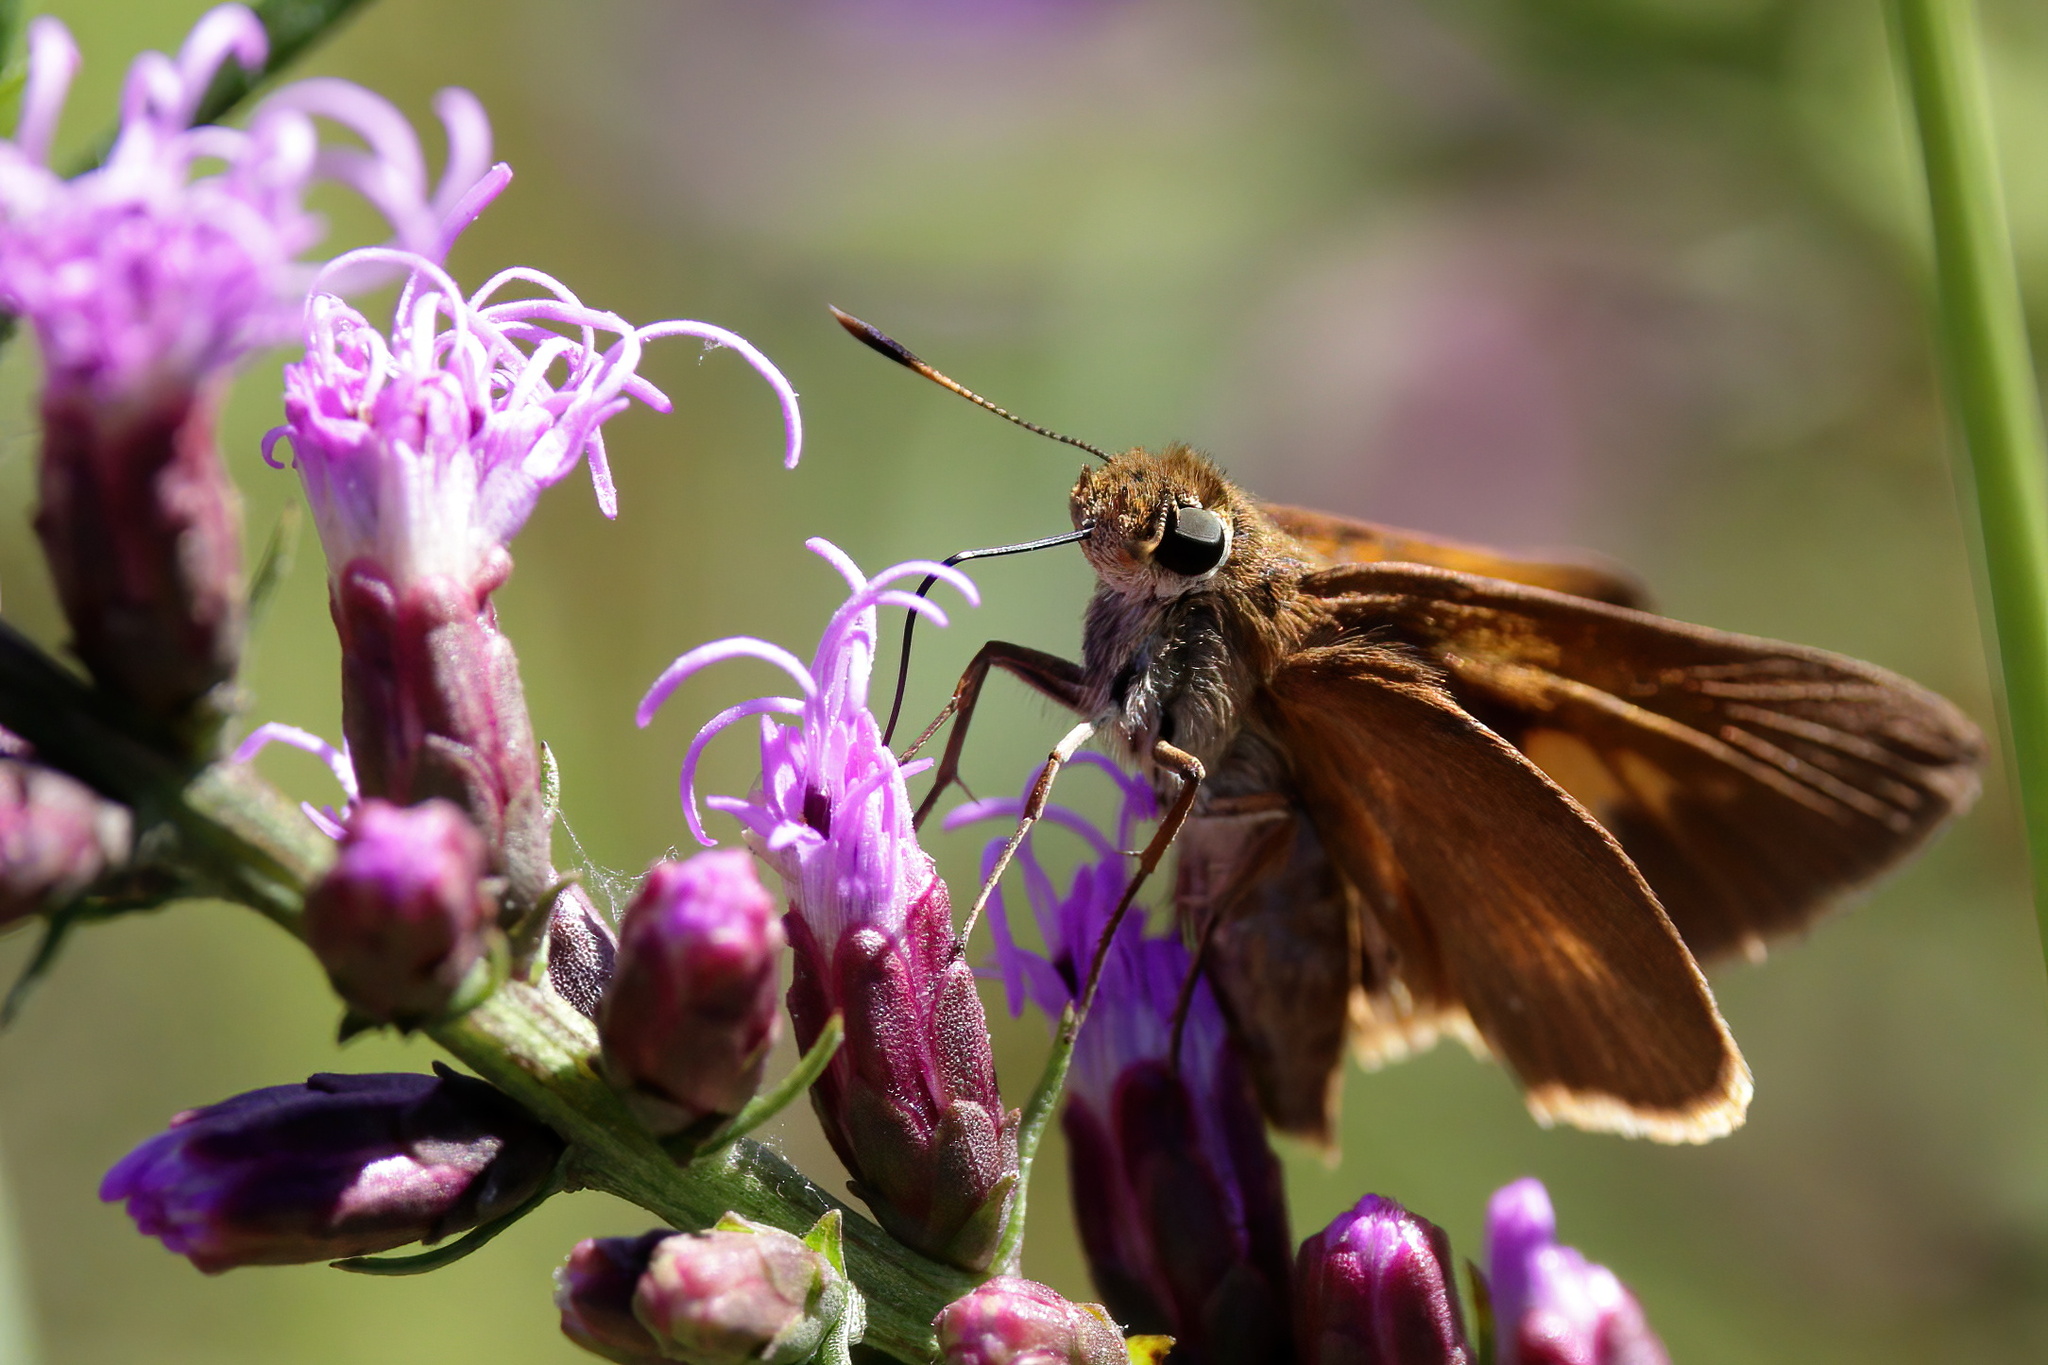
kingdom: Animalia
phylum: Arthropoda
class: Insecta
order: Lepidoptera
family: Hesperiidae
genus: Euphyes
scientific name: Euphyes pilatka
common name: Palatka skipper
